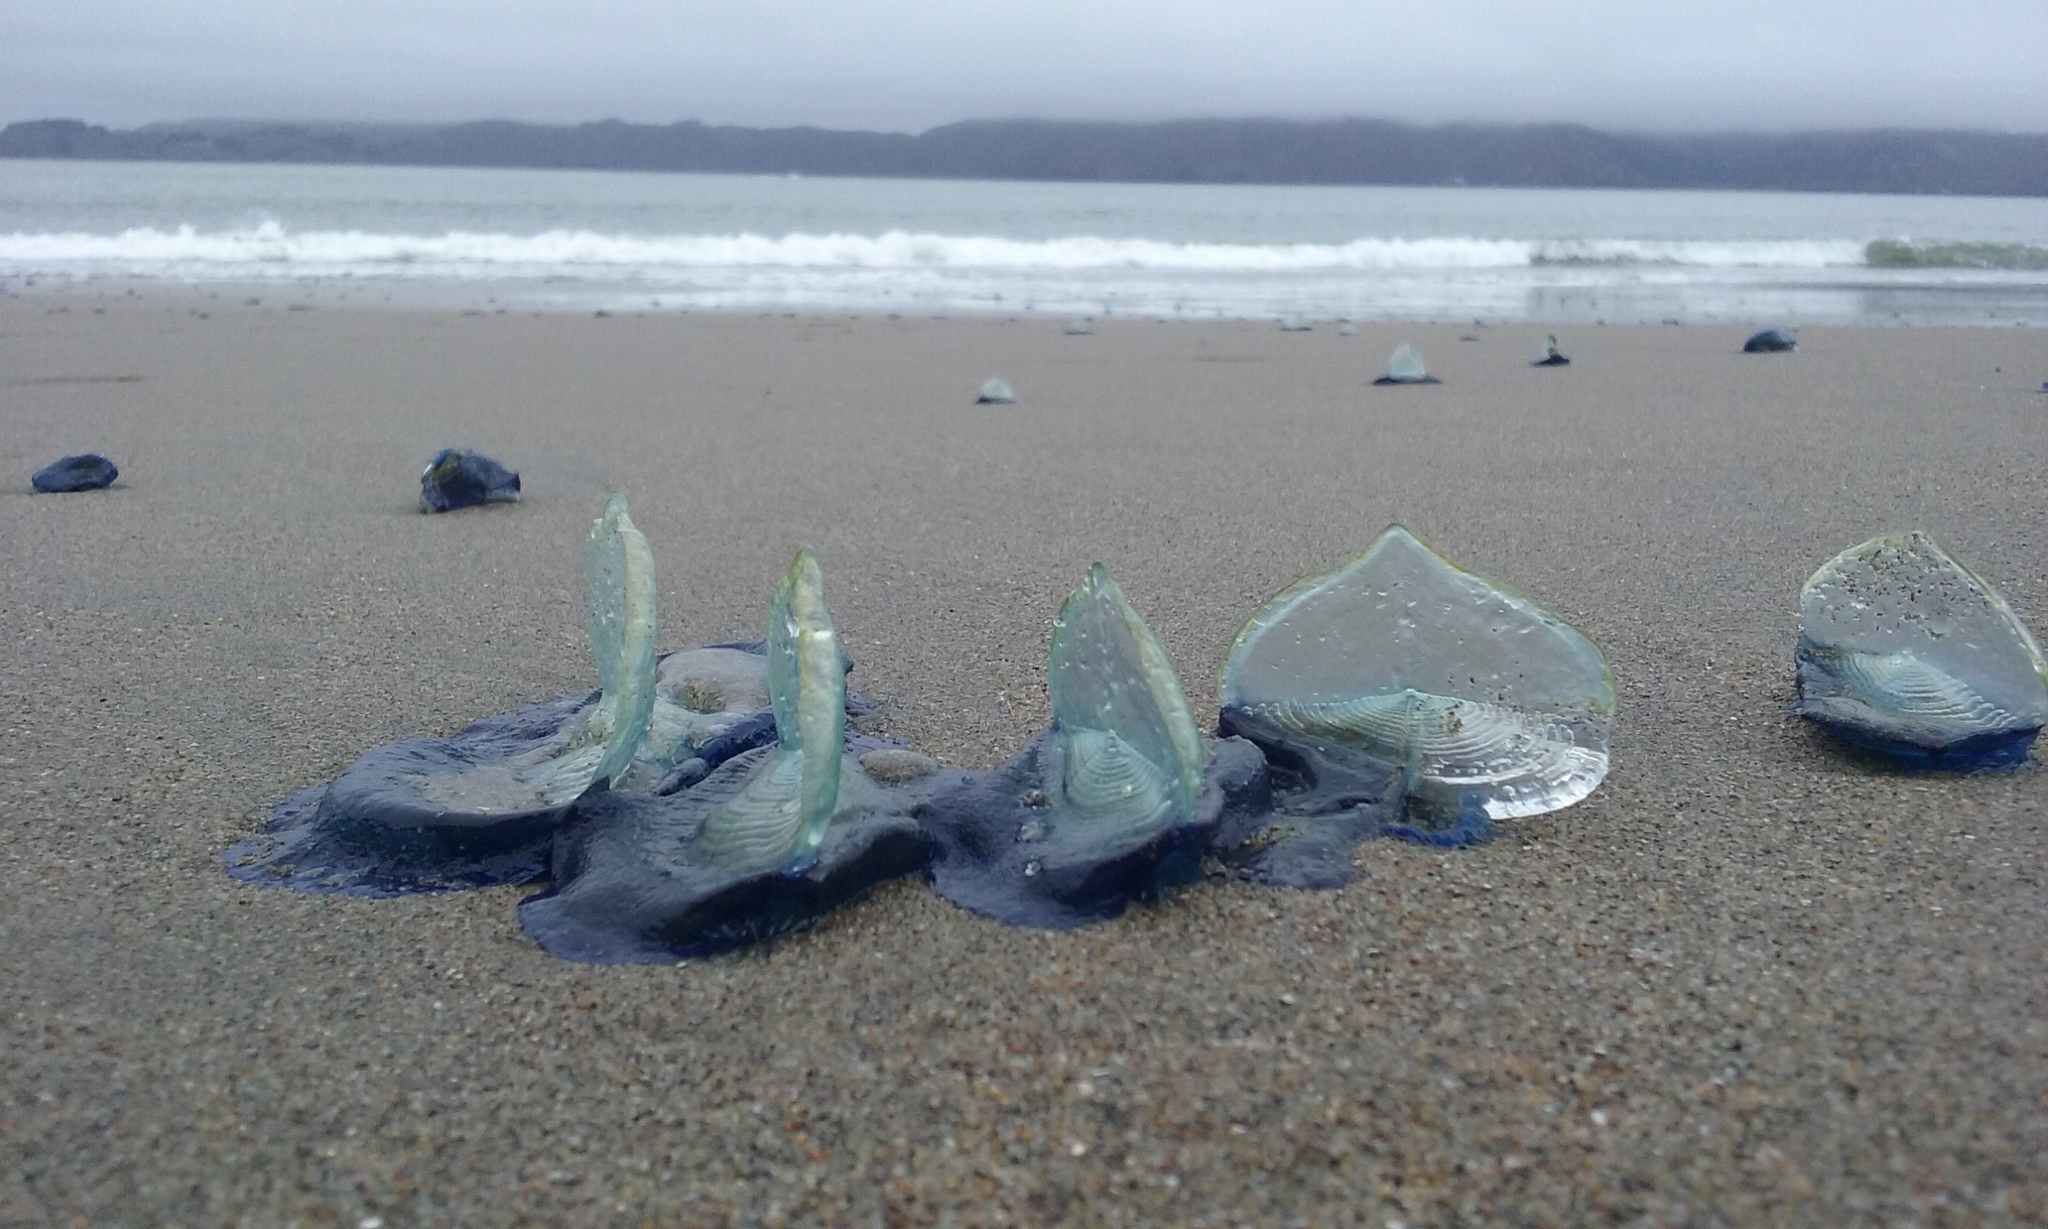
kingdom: Animalia
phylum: Cnidaria
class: Hydrozoa
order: Anthoathecata
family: Porpitidae
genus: Velella
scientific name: Velella velella
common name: By-the-wind-sailor
